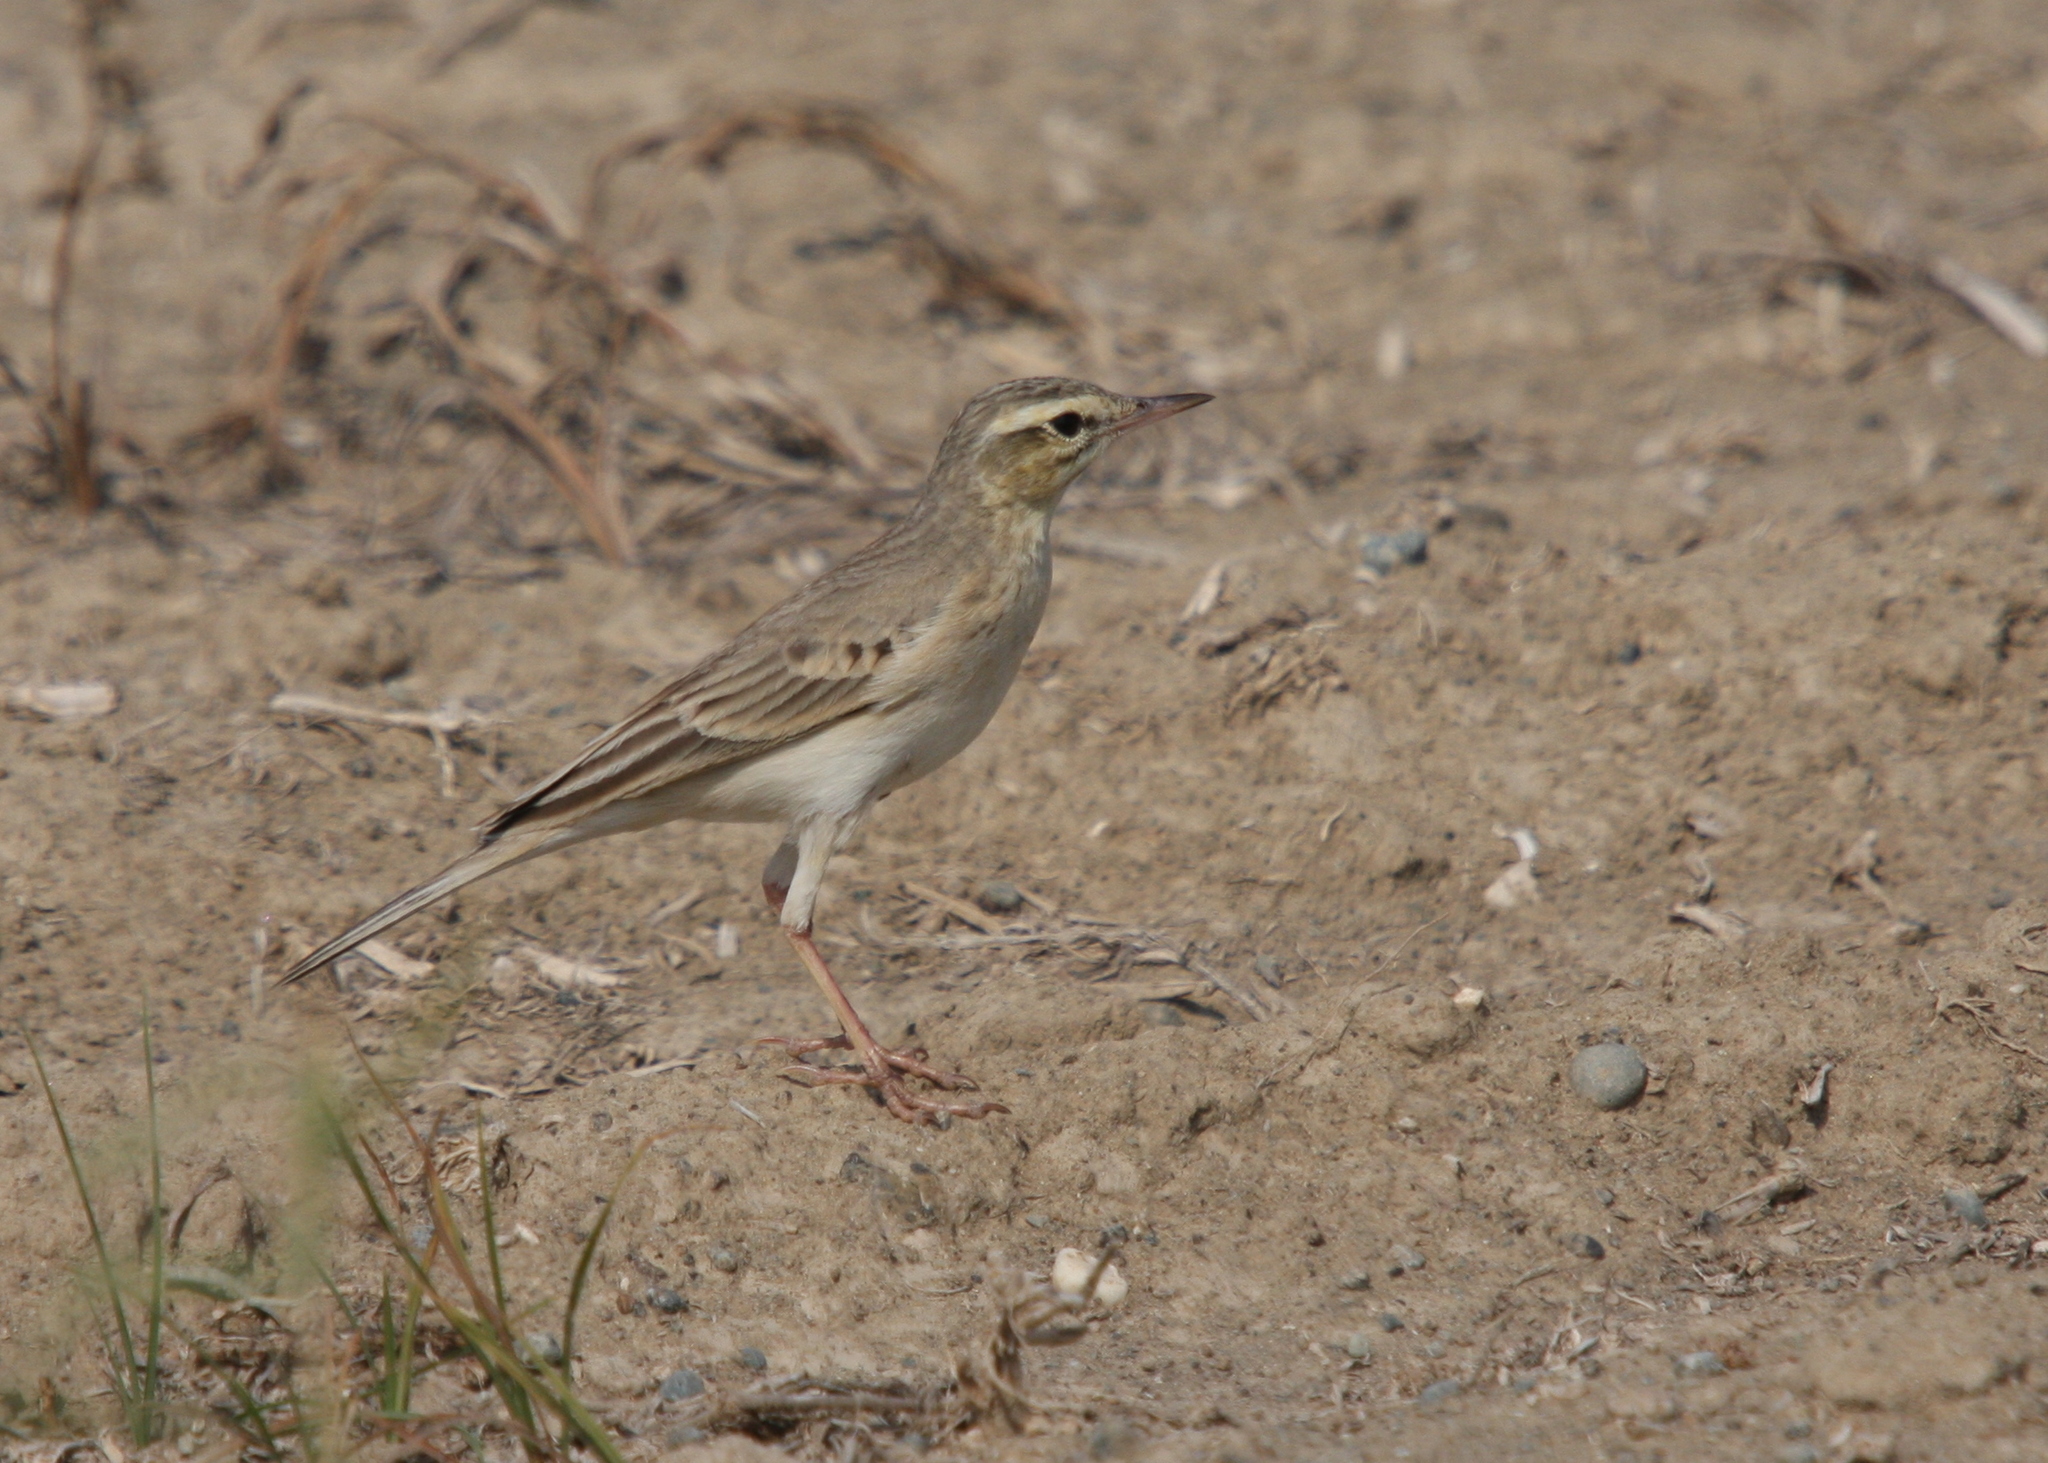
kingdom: Animalia
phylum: Chordata
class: Aves
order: Passeriformes
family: Motacillidae
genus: Anthus
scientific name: Anthus campestris
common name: Tawny pipit
